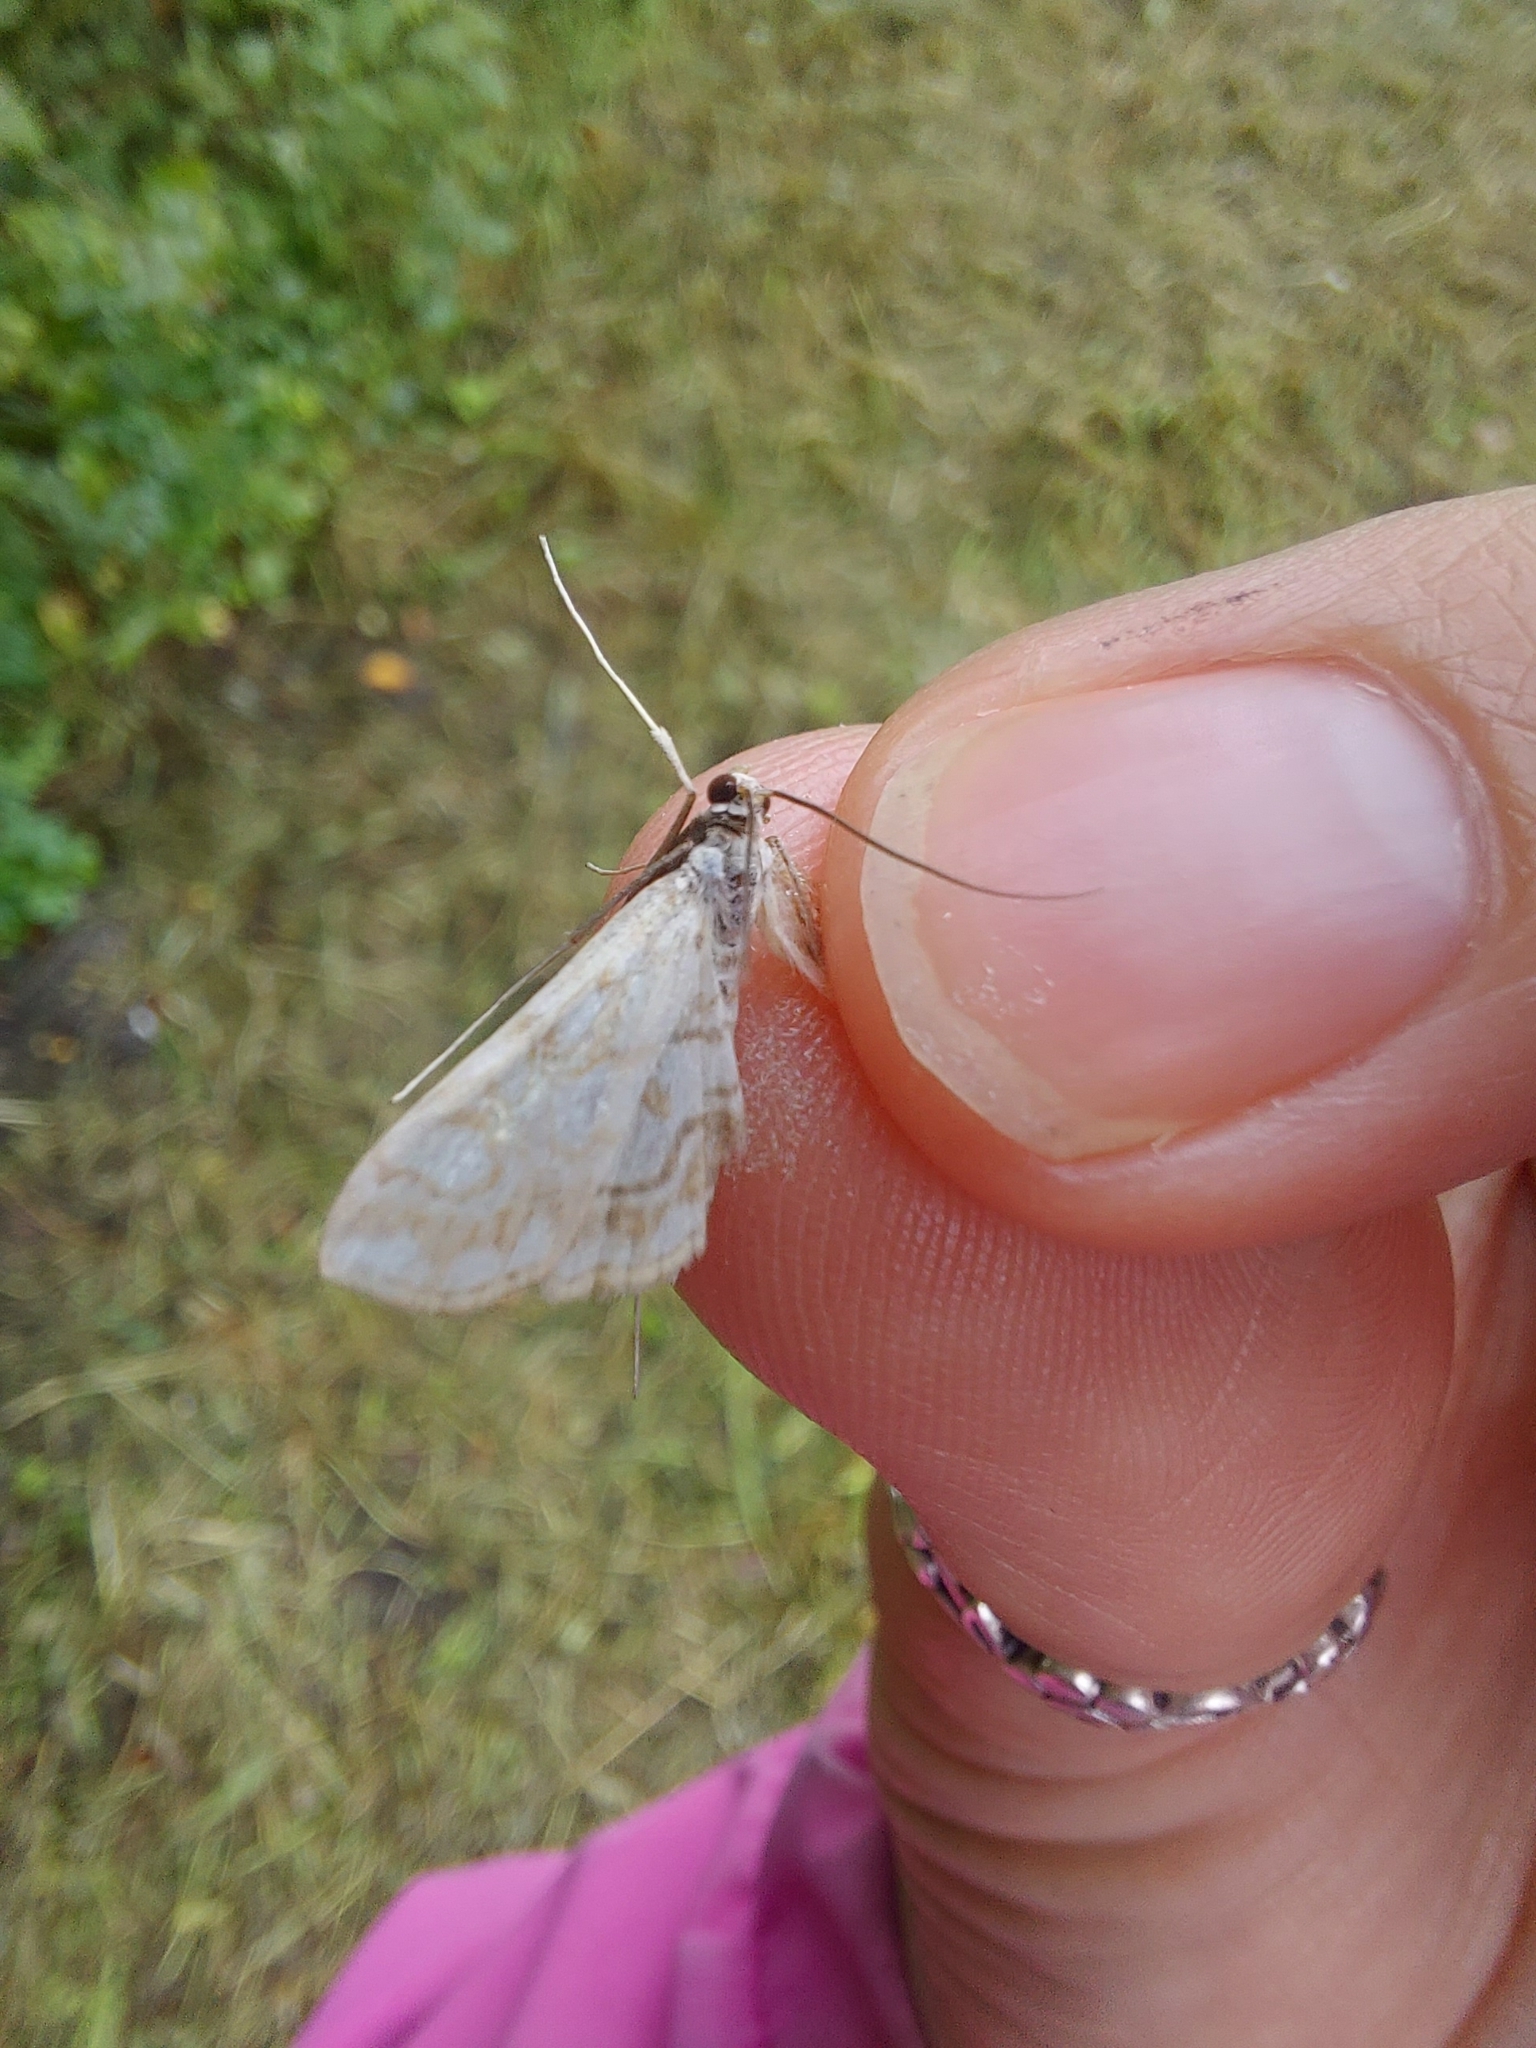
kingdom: Animalia
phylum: Arthropoda
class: Insecta
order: Lepidoptera
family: Crambidae
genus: Elophila
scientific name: Elophila nymphaeata
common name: Brown china-mark
